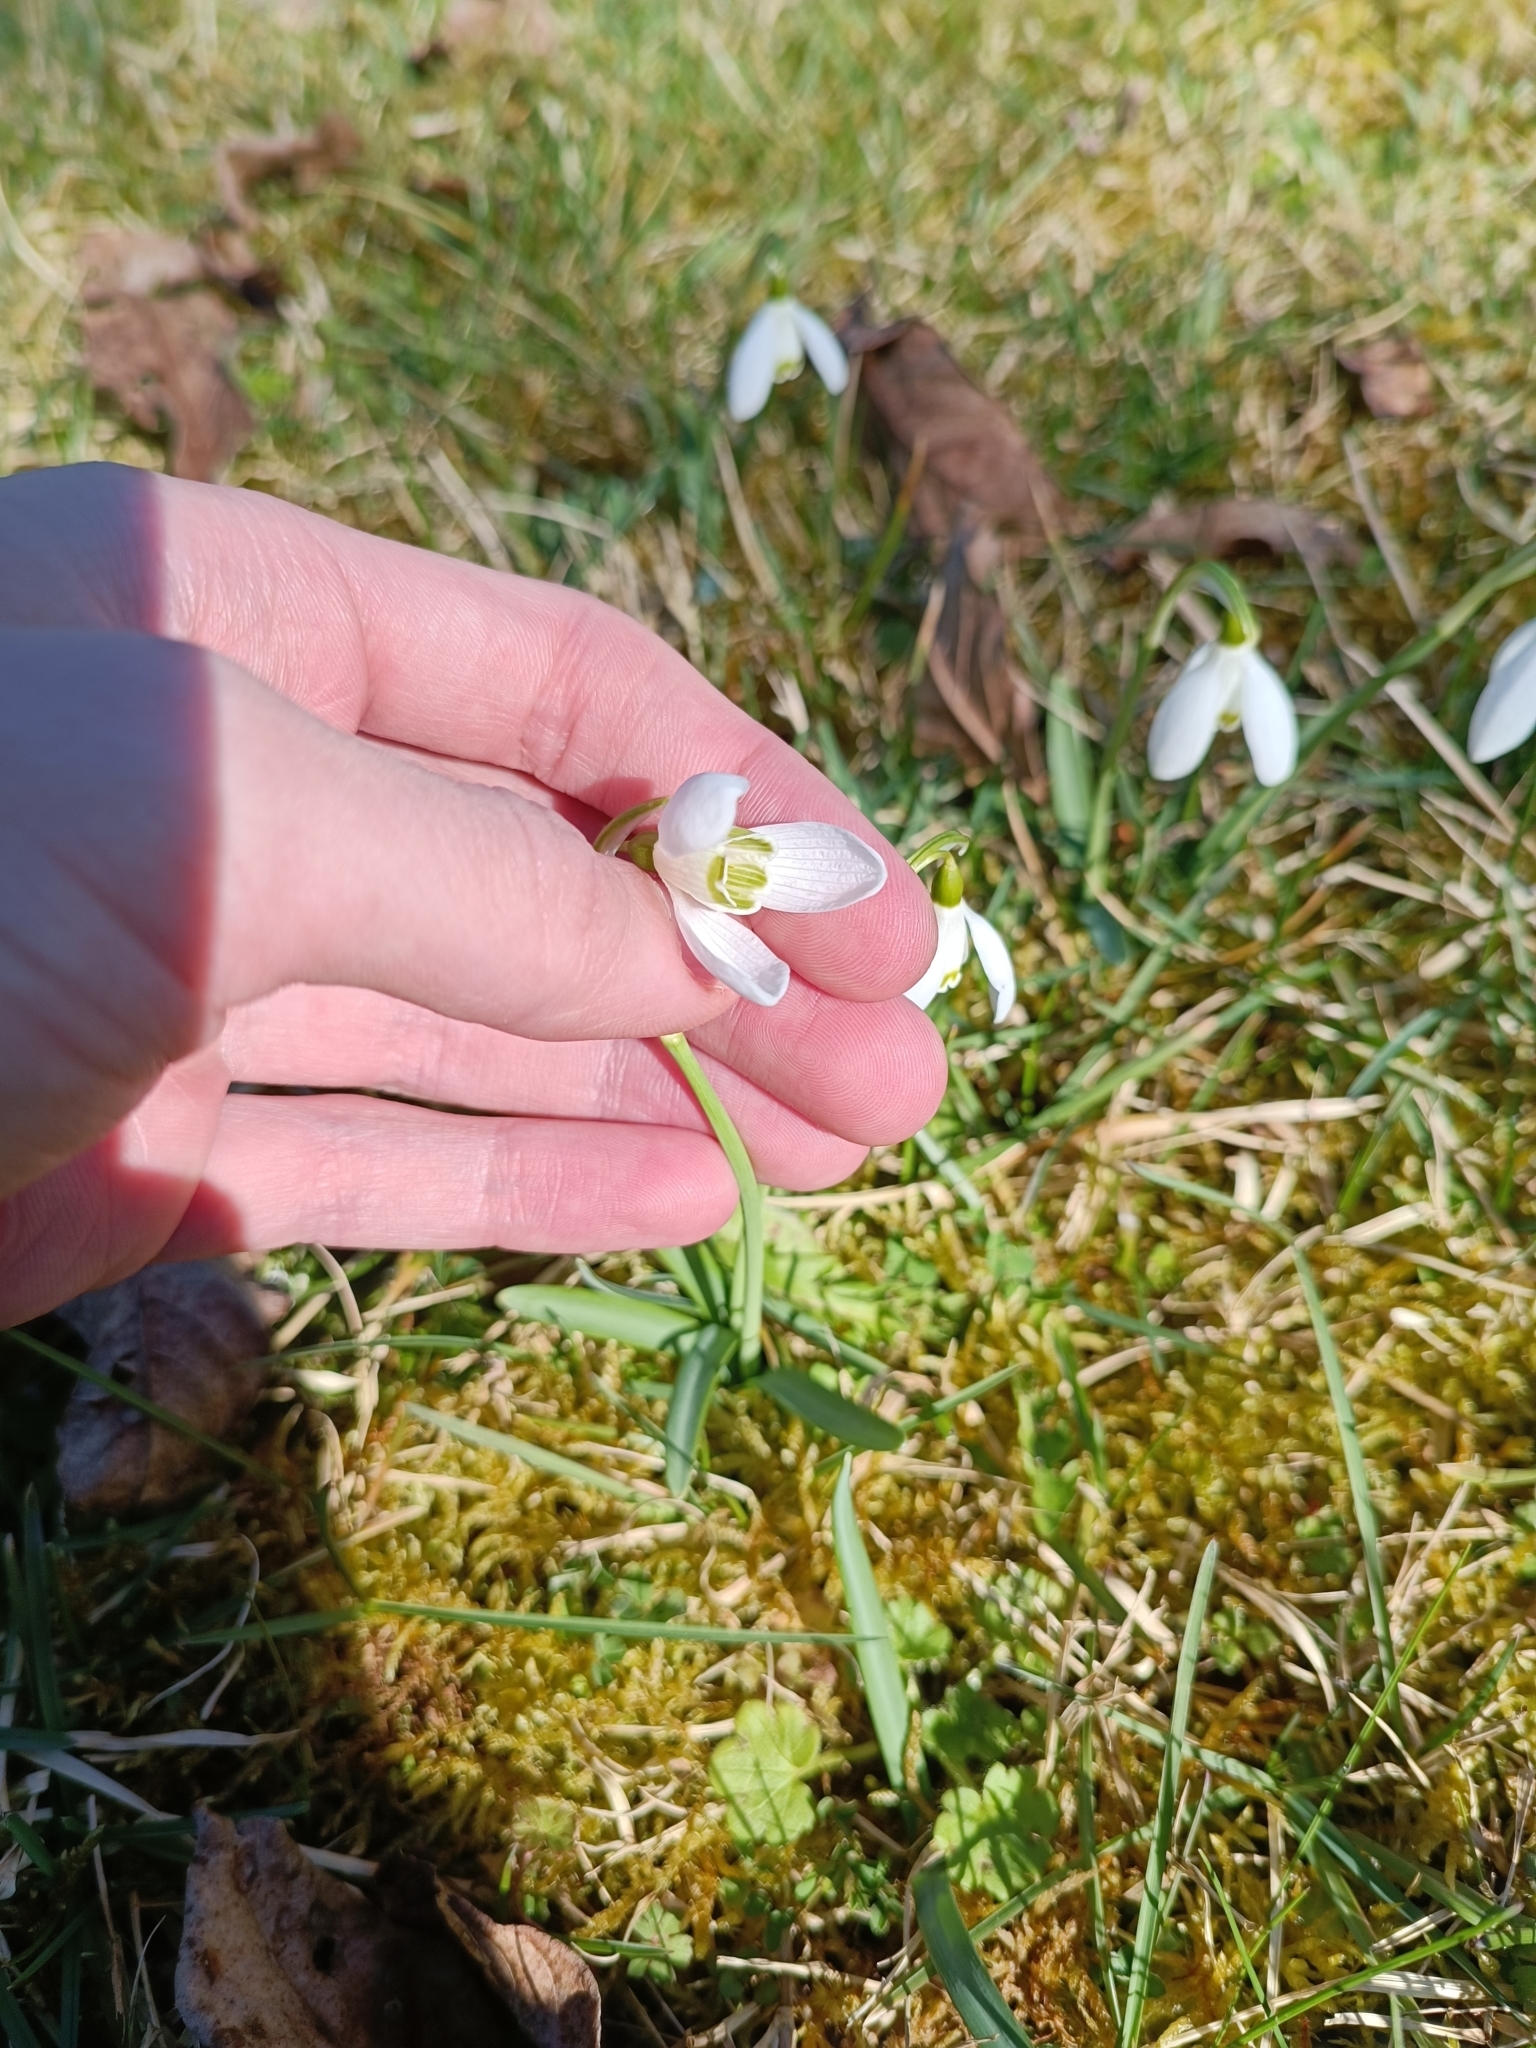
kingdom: Plantae
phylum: Tracheophyta
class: Liliopsida
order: Asparagales
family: Amaryllidaceae
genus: Galanthus
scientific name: Galanthus nivalis
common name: Snowdrop
